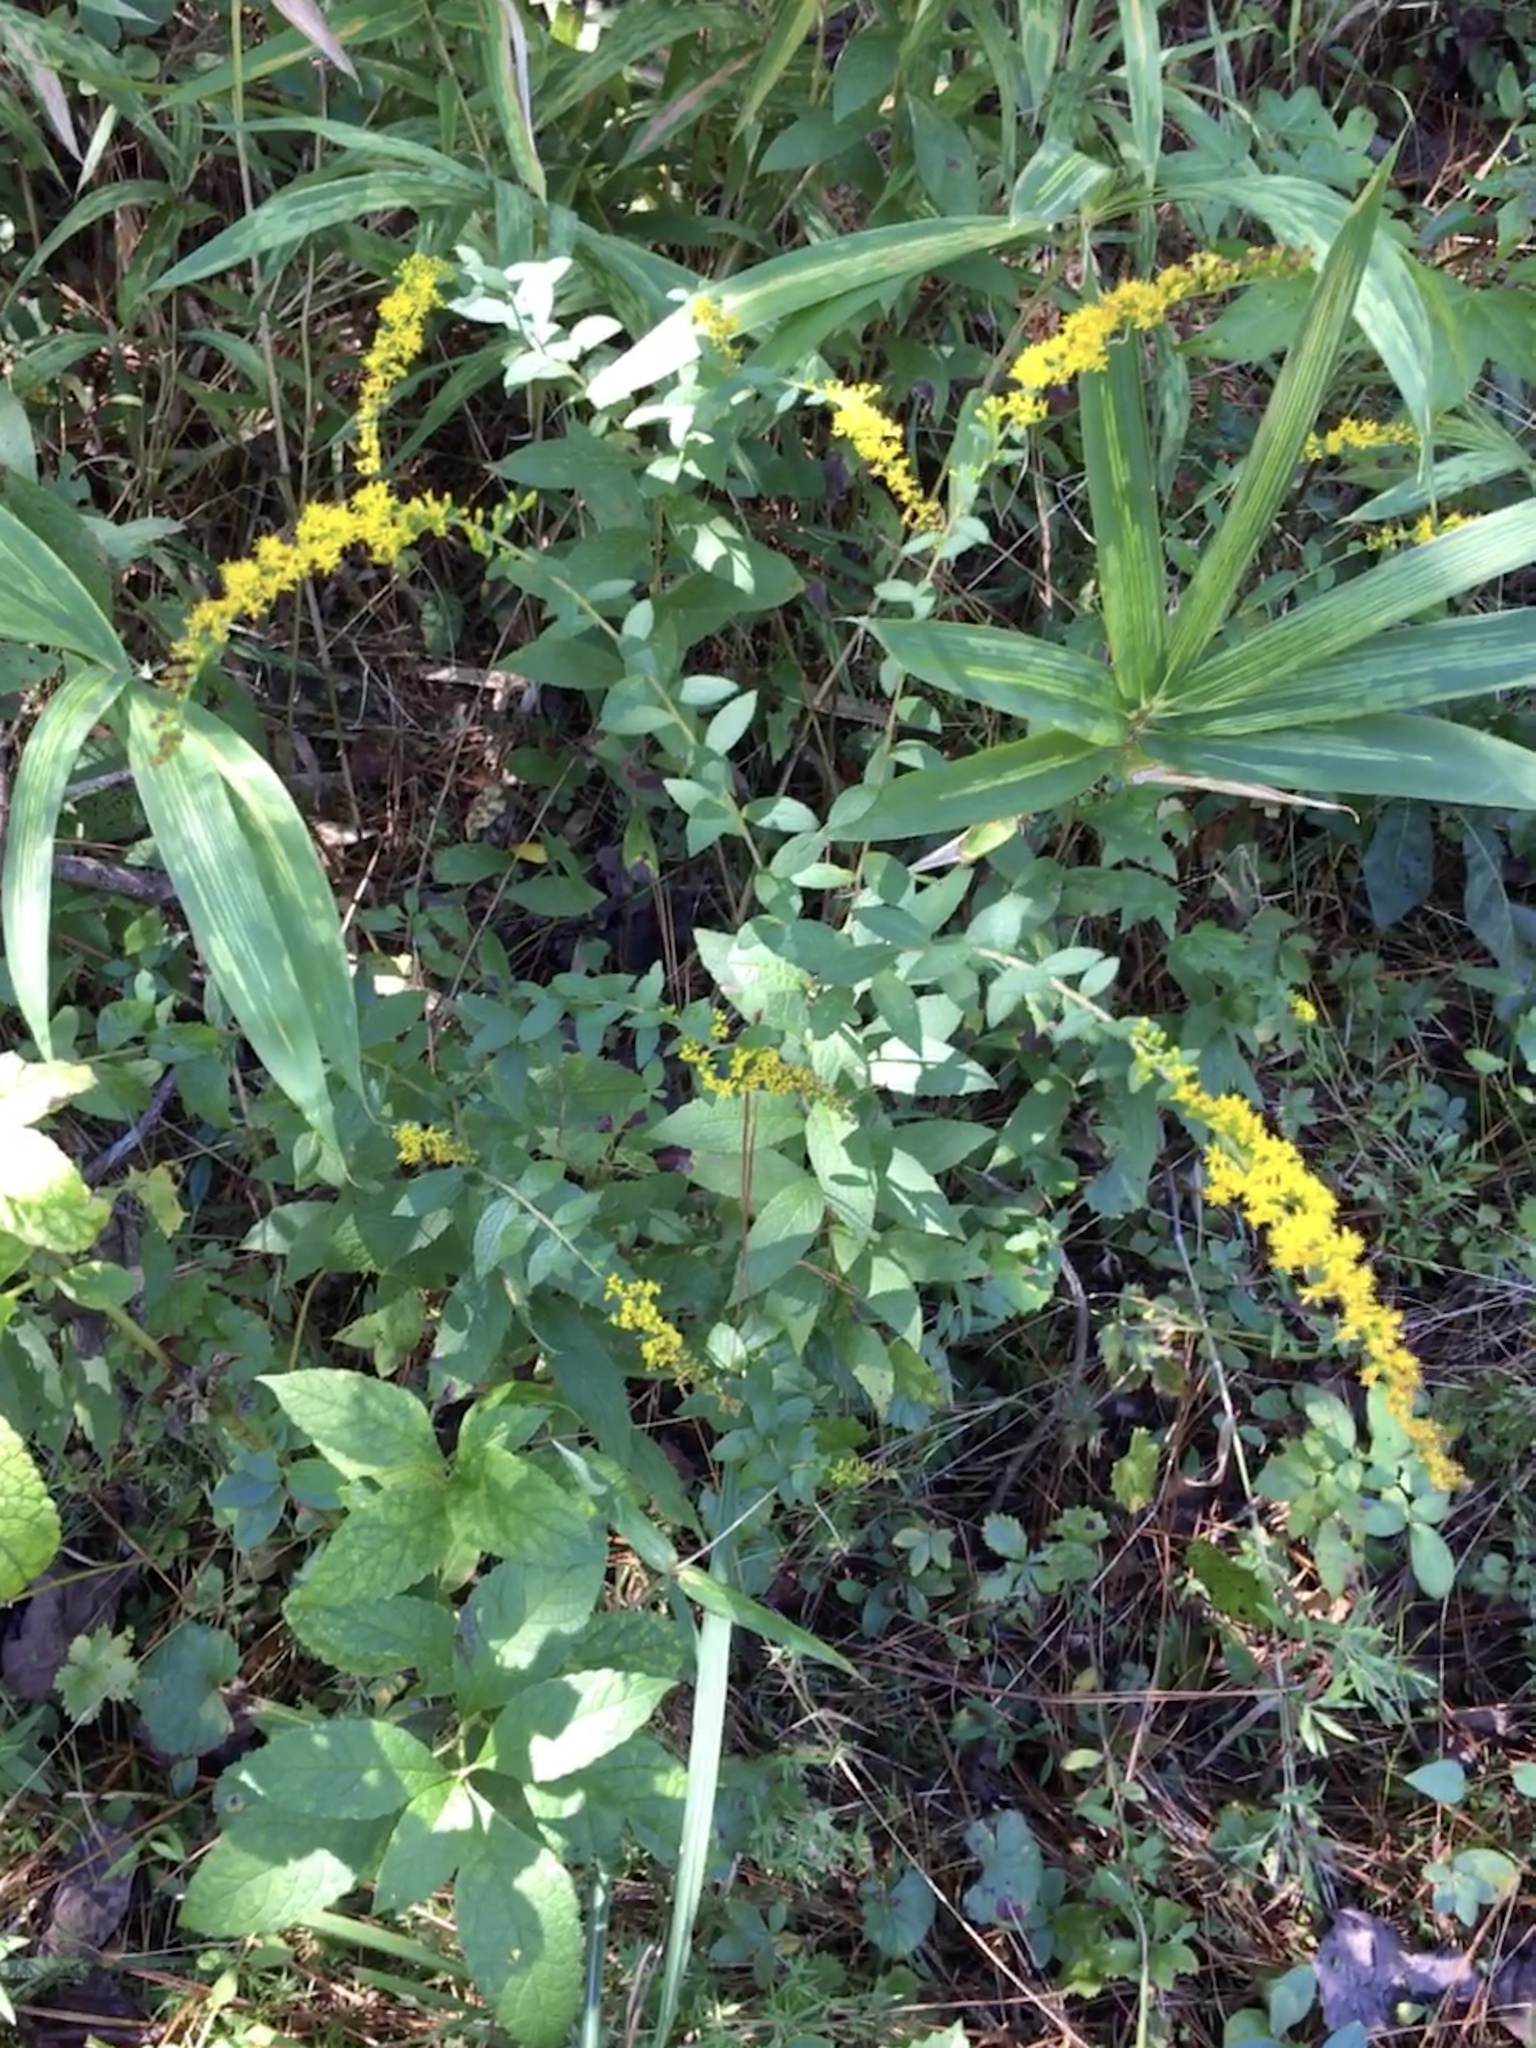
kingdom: Plantae
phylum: Tracheophyta
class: Magnoliopsida
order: Asterales
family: Asteraceae
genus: Solidago
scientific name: Solidago rugosa
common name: Rough-stemmed goldenrod
